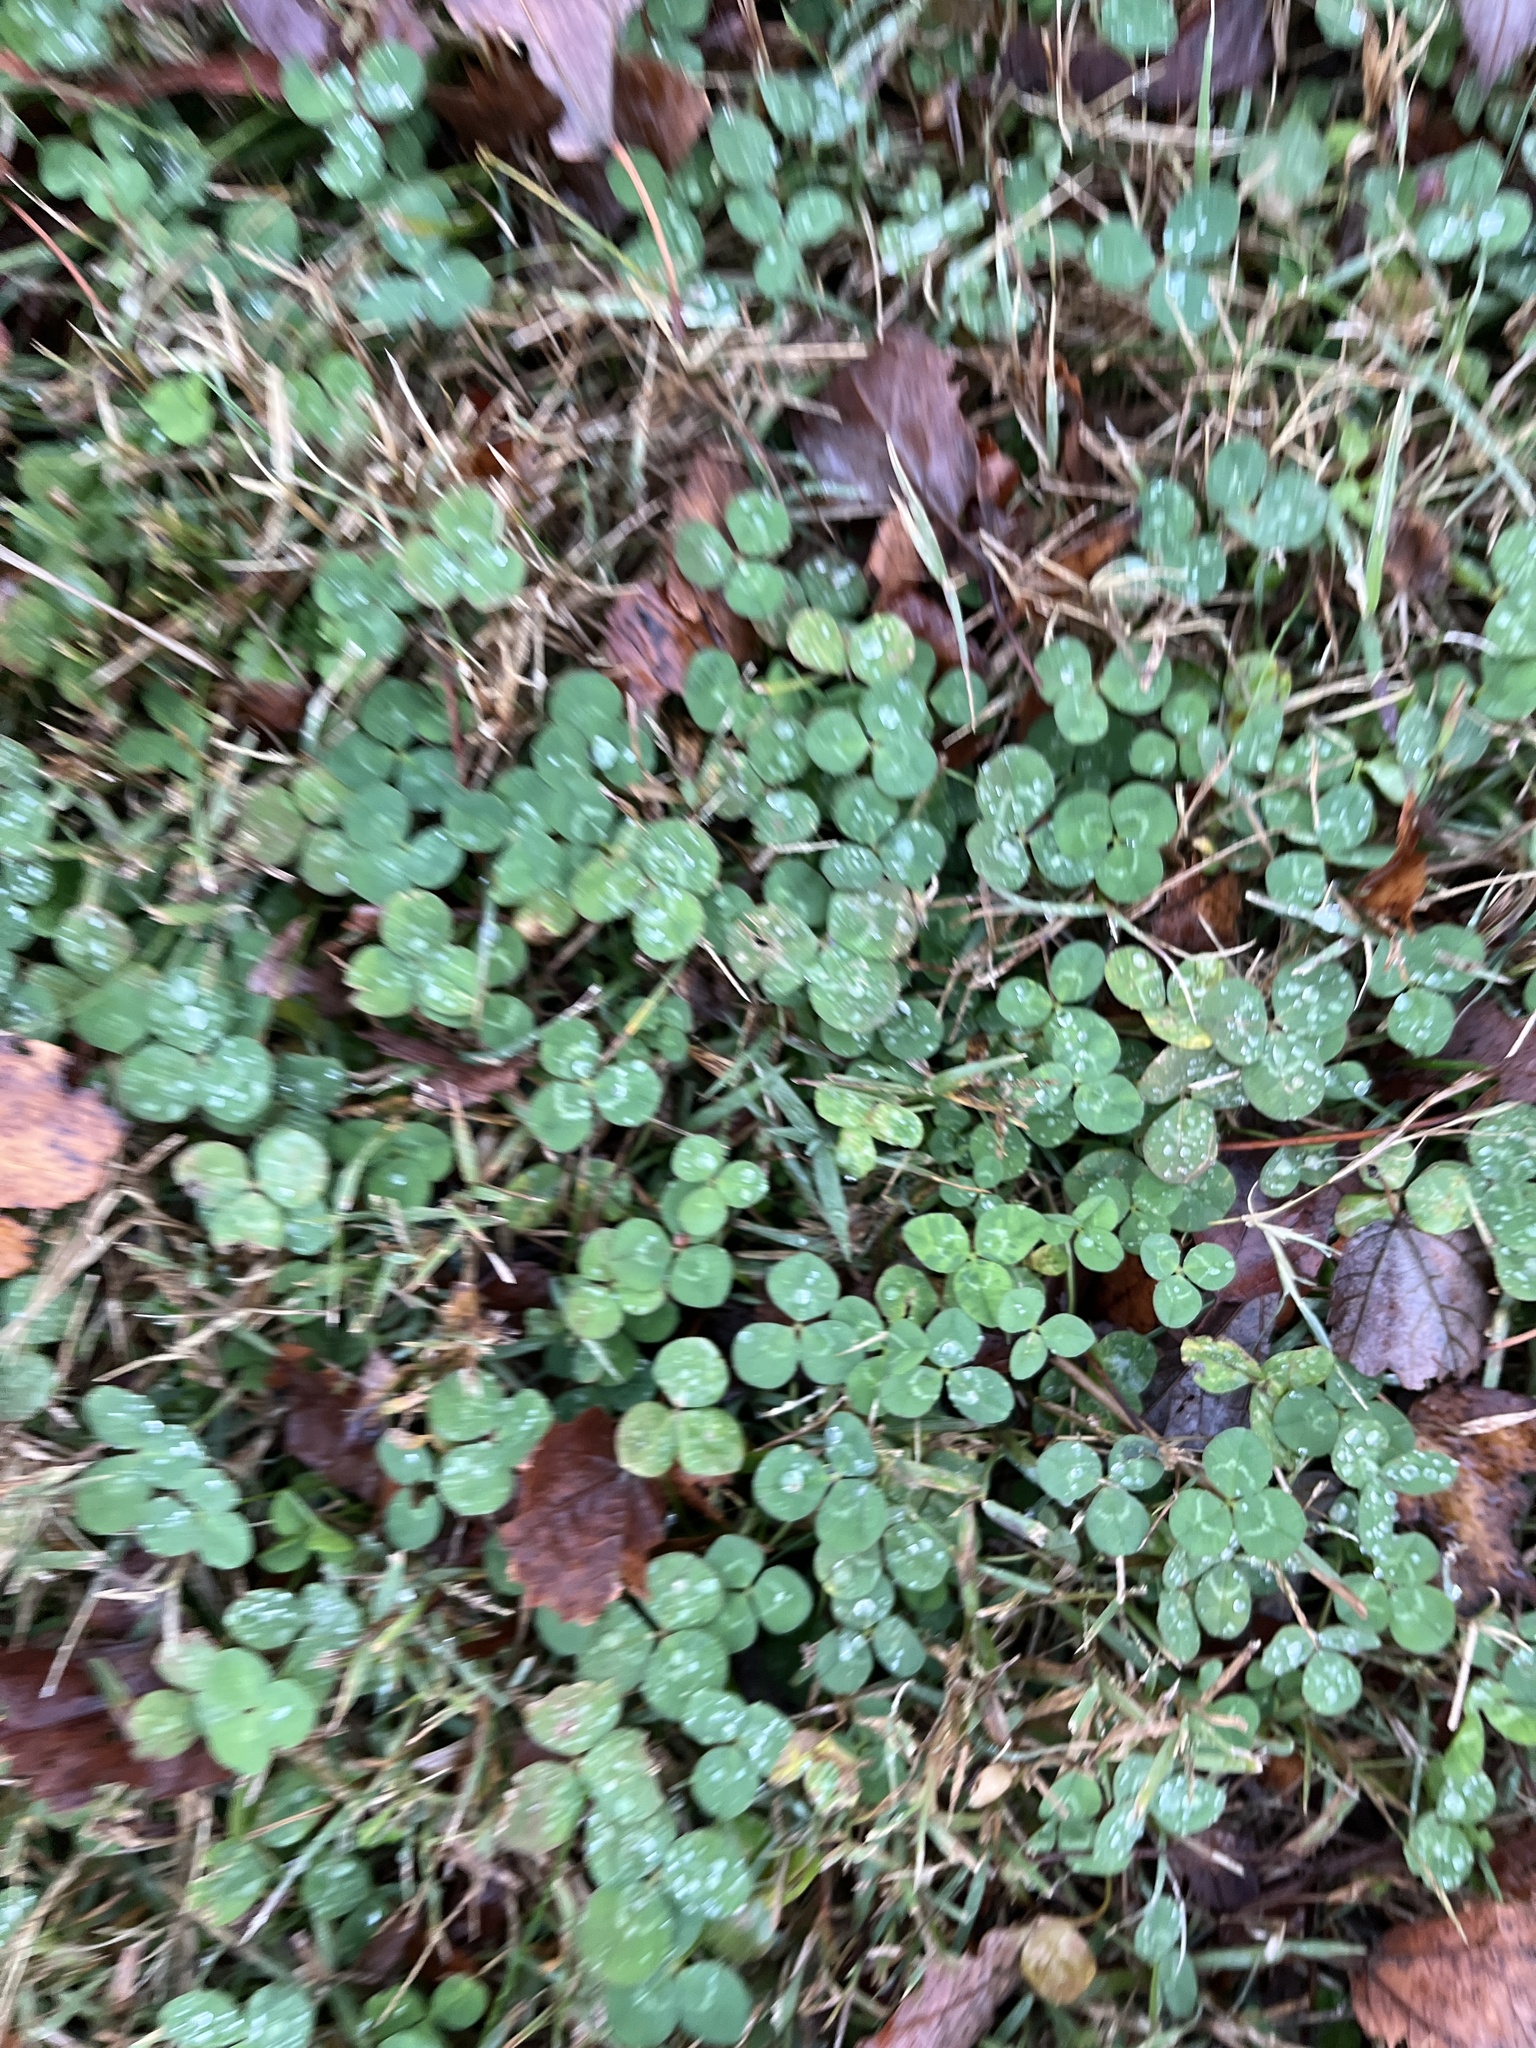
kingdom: Plantae
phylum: Tracheophyta
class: Magnoliopsida
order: Fabales
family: Fabaceae
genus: Trifolium
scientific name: Trifolium repens
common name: White clover
